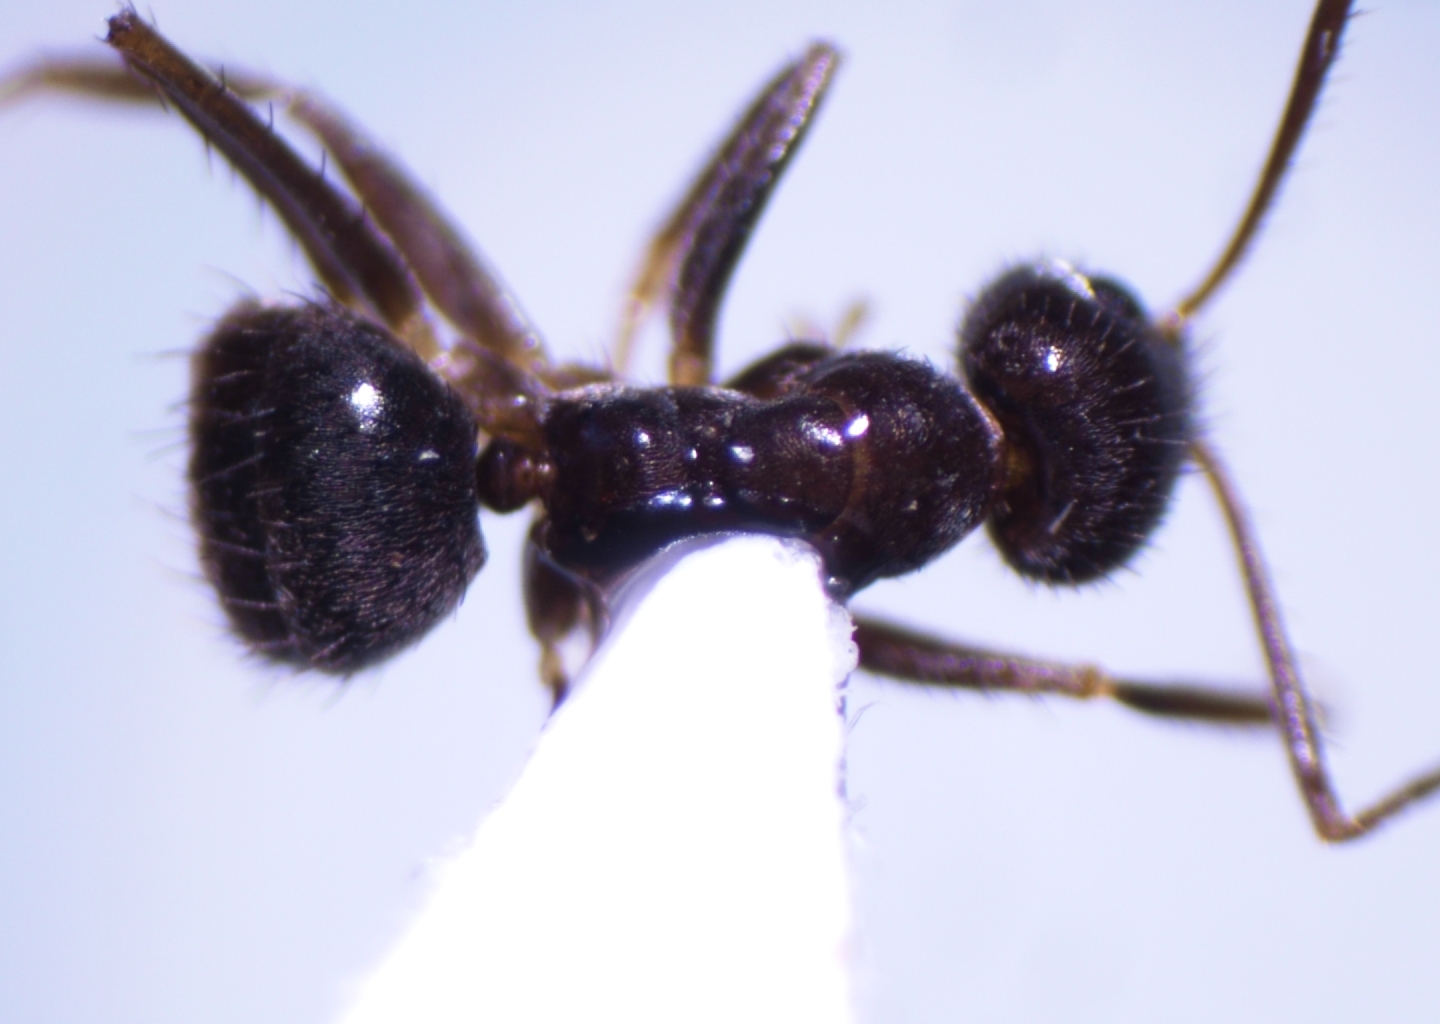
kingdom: Animalia
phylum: Arthropoda
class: Insecta
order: Hymenoptera
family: Formicidae
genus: Paratrechina
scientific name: Paratrechina bourbonica
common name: Ant
